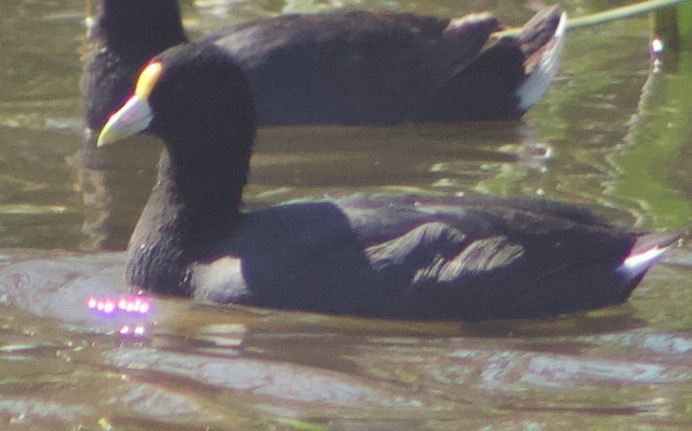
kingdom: Animalia
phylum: Chordata
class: Aves
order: Gruiformes
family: Rallidae
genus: Fulica
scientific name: Fulica leucoptera
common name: White-winged coot
